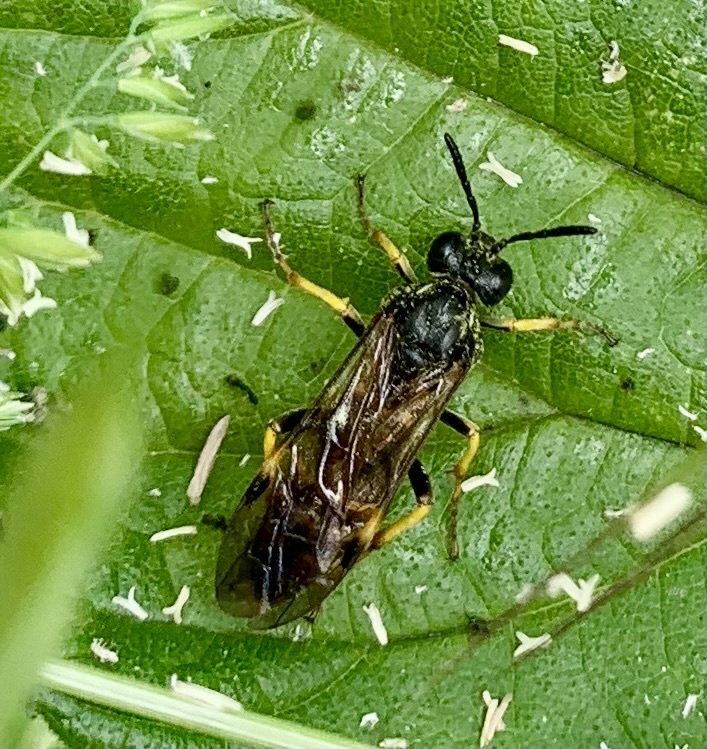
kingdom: Animalia
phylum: Arthropoda
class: Insecta
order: Hymenoptera
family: Tenthredinidae
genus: Tenthredo
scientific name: Tenthredo koehleri
